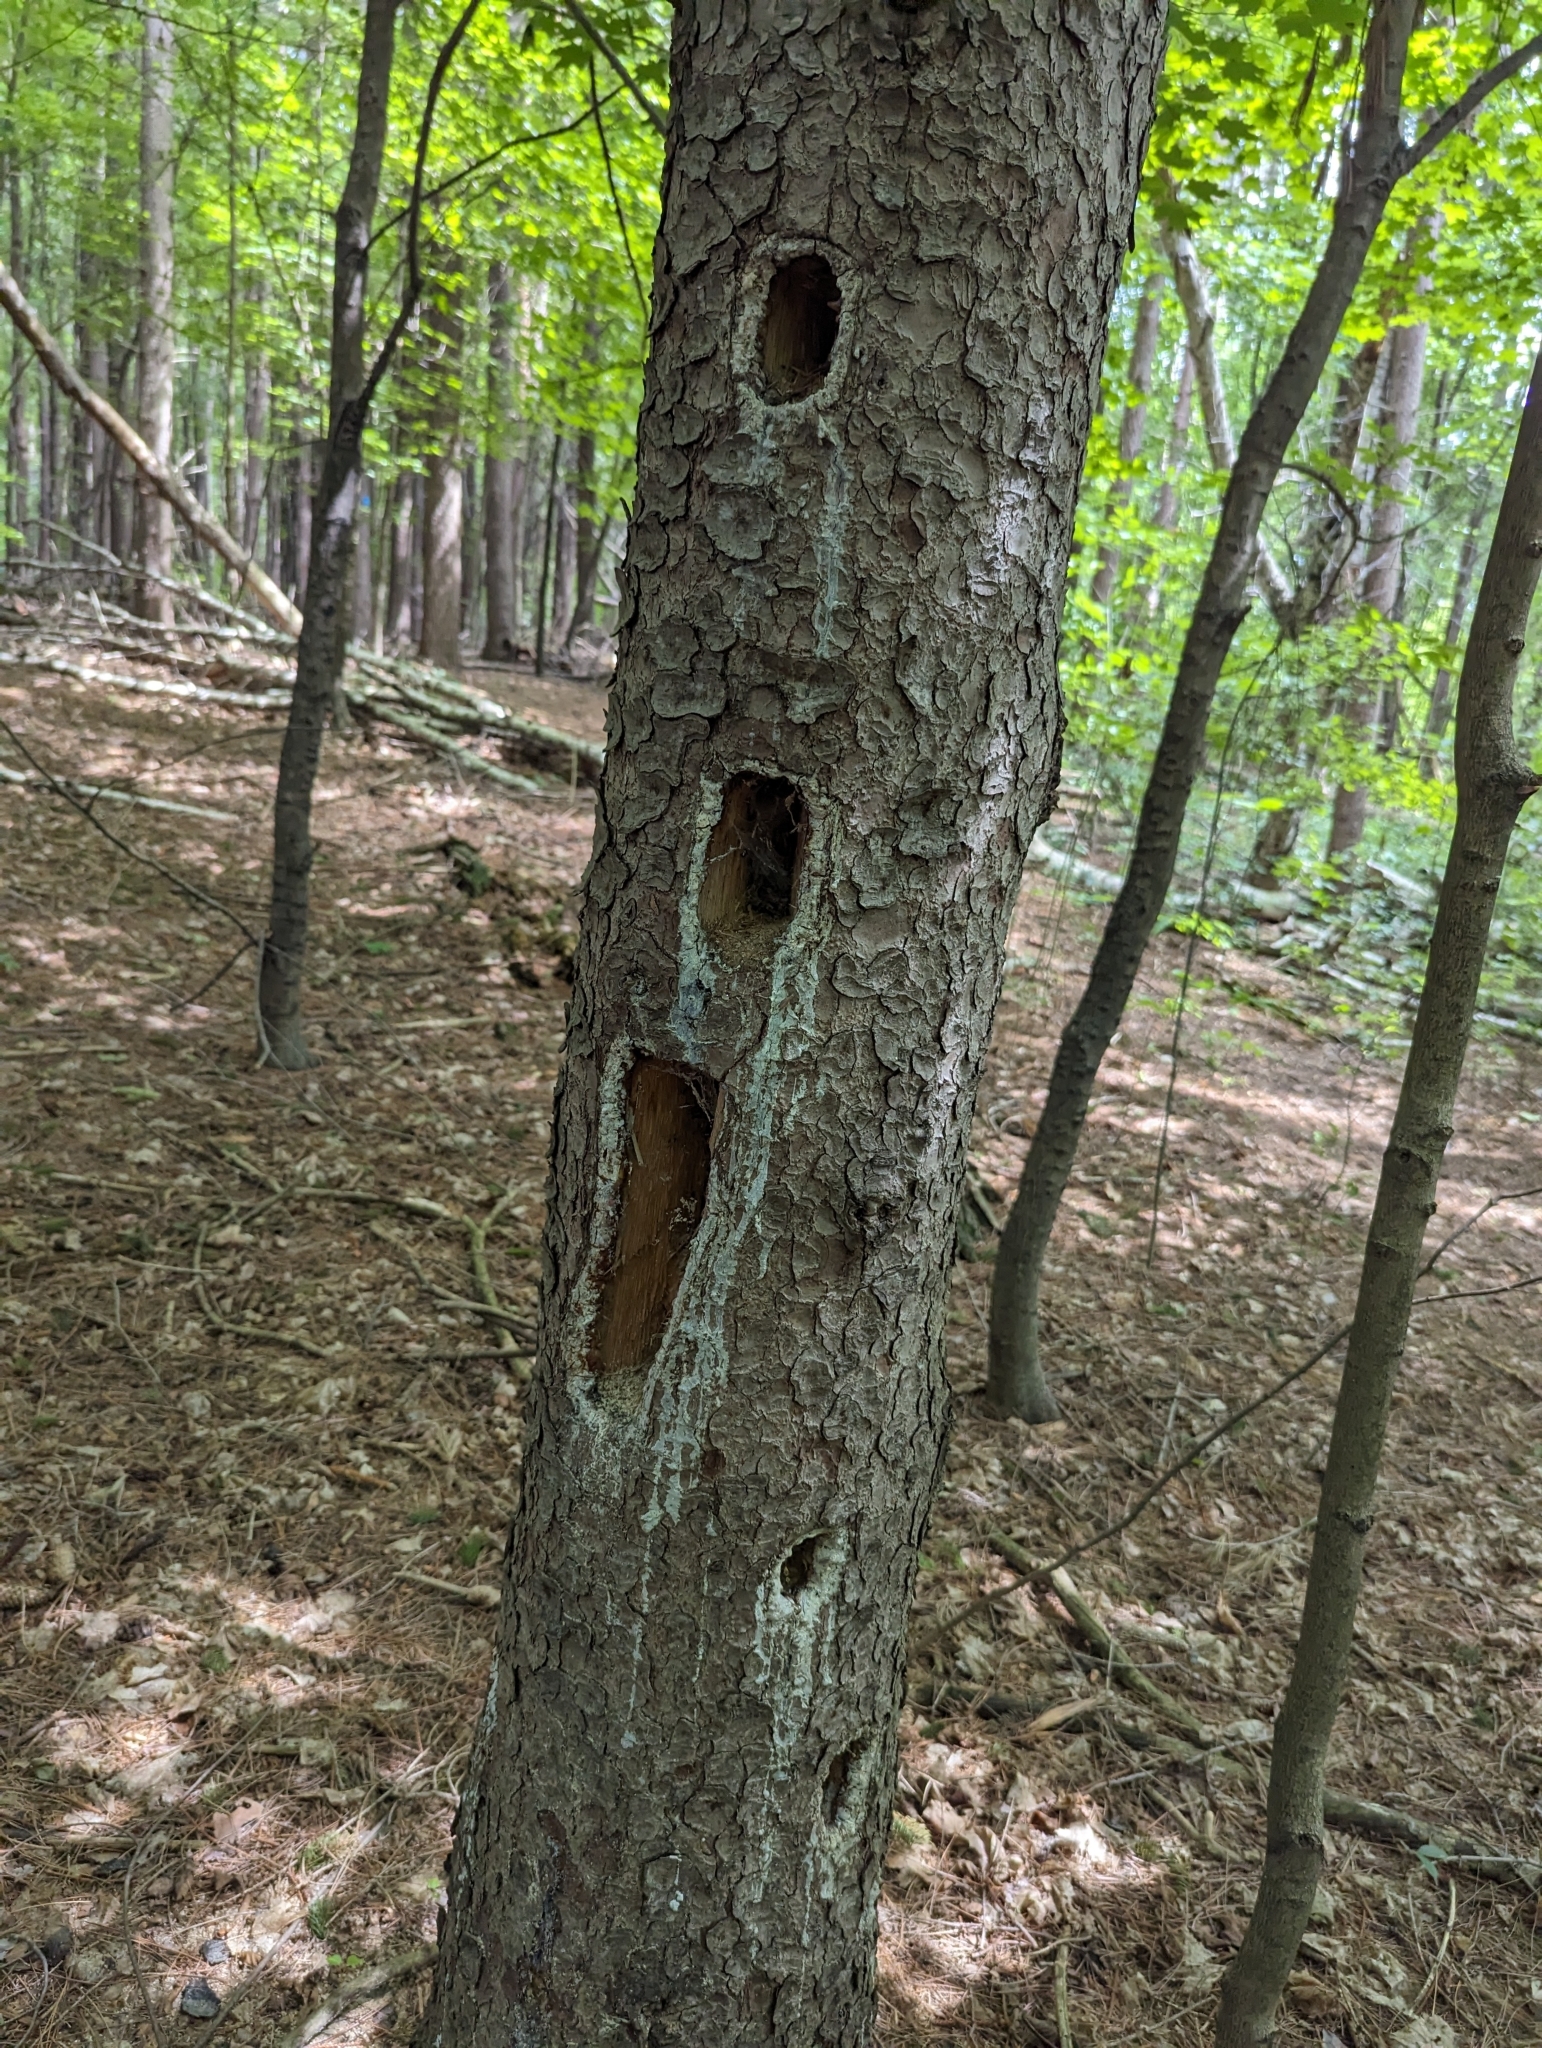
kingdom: Animalia
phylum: Chordata
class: Aves
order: Piciformes
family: Picidae
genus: Dryocopus
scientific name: Dryocopus pileatus
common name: Pileated woodpecker
